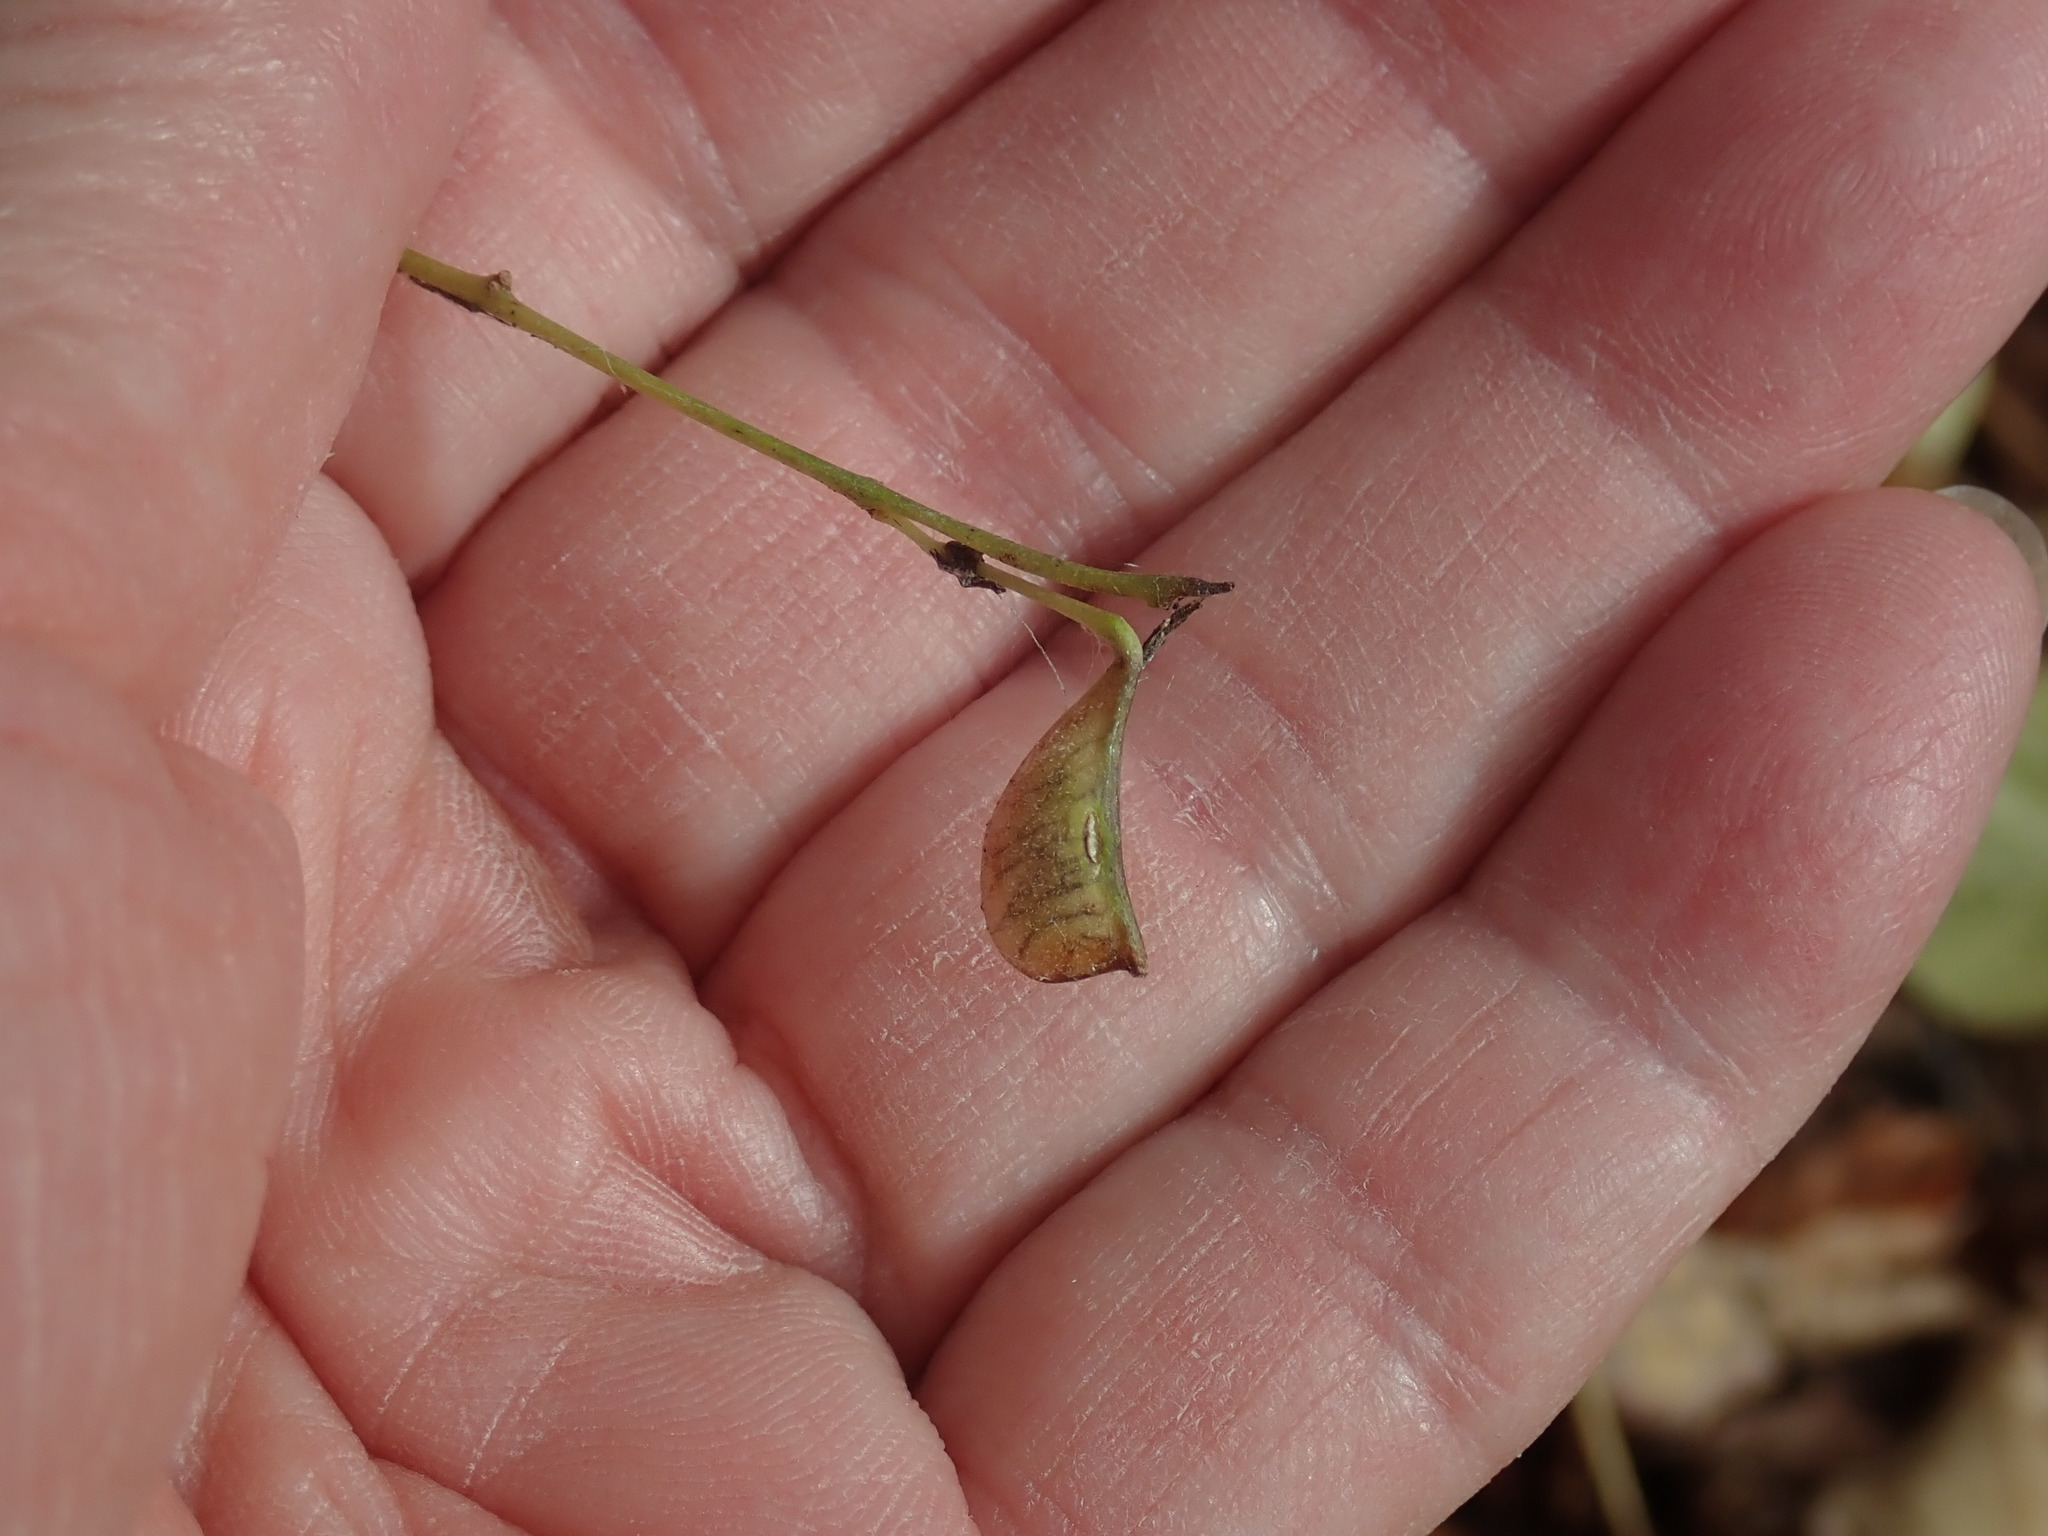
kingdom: Plantae
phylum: Tracheophyta
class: Magnoliopsida
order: Fabales
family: Fabaceae
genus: Hylodesmum
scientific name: Hylodesmum glutinosum
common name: Clustered-leaved tick-trefoil
